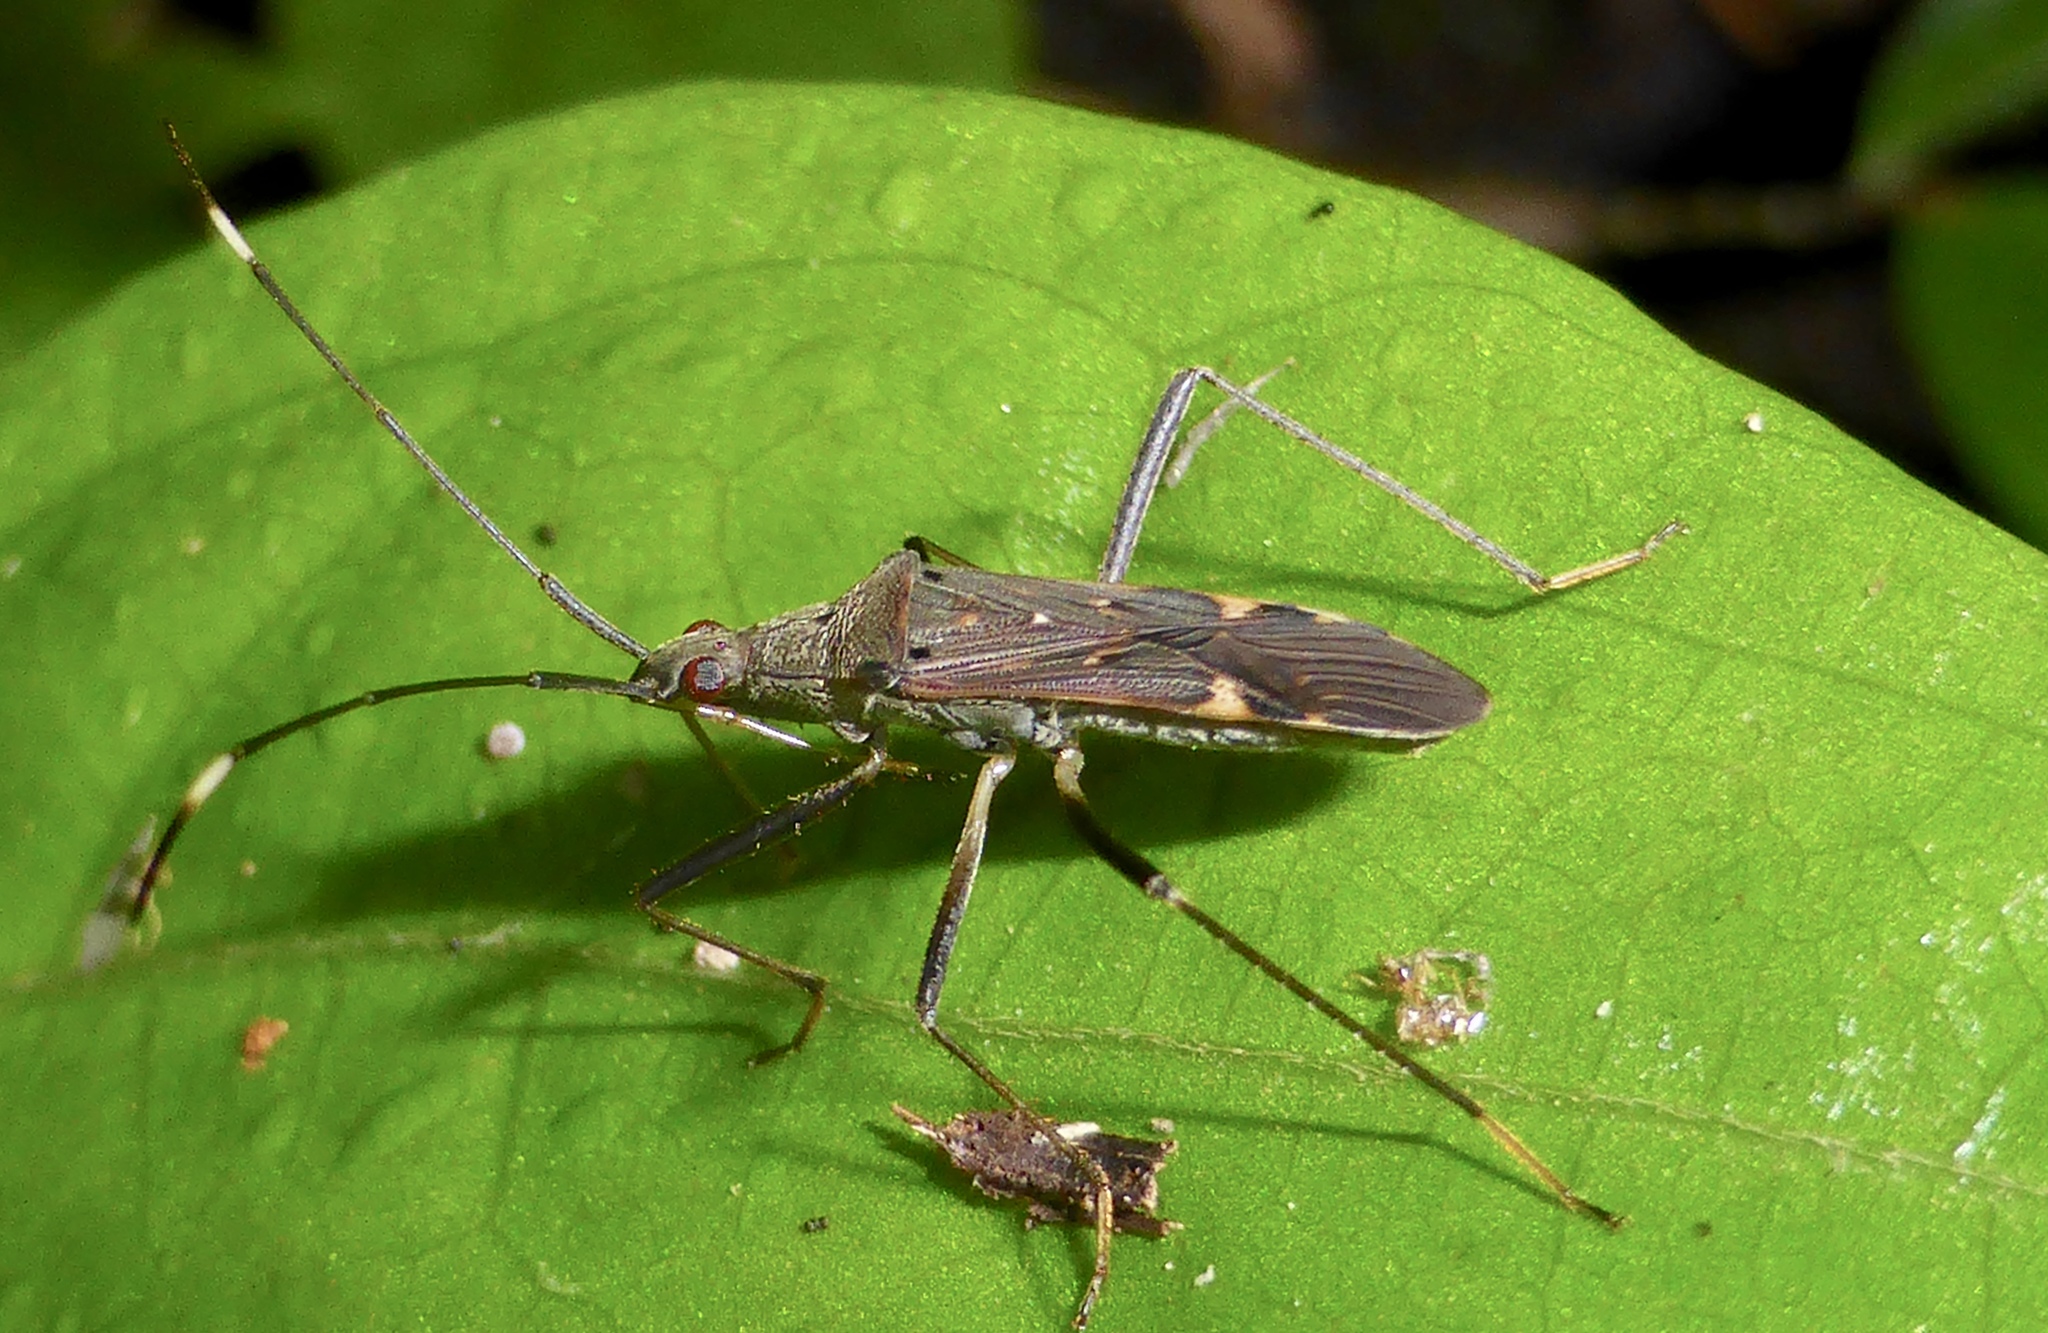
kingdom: Animalia
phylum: Arthropoda
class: Insecta
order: Hemiptera
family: Rhyparochromidae
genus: Narbo
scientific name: Narbo biplagiatus
